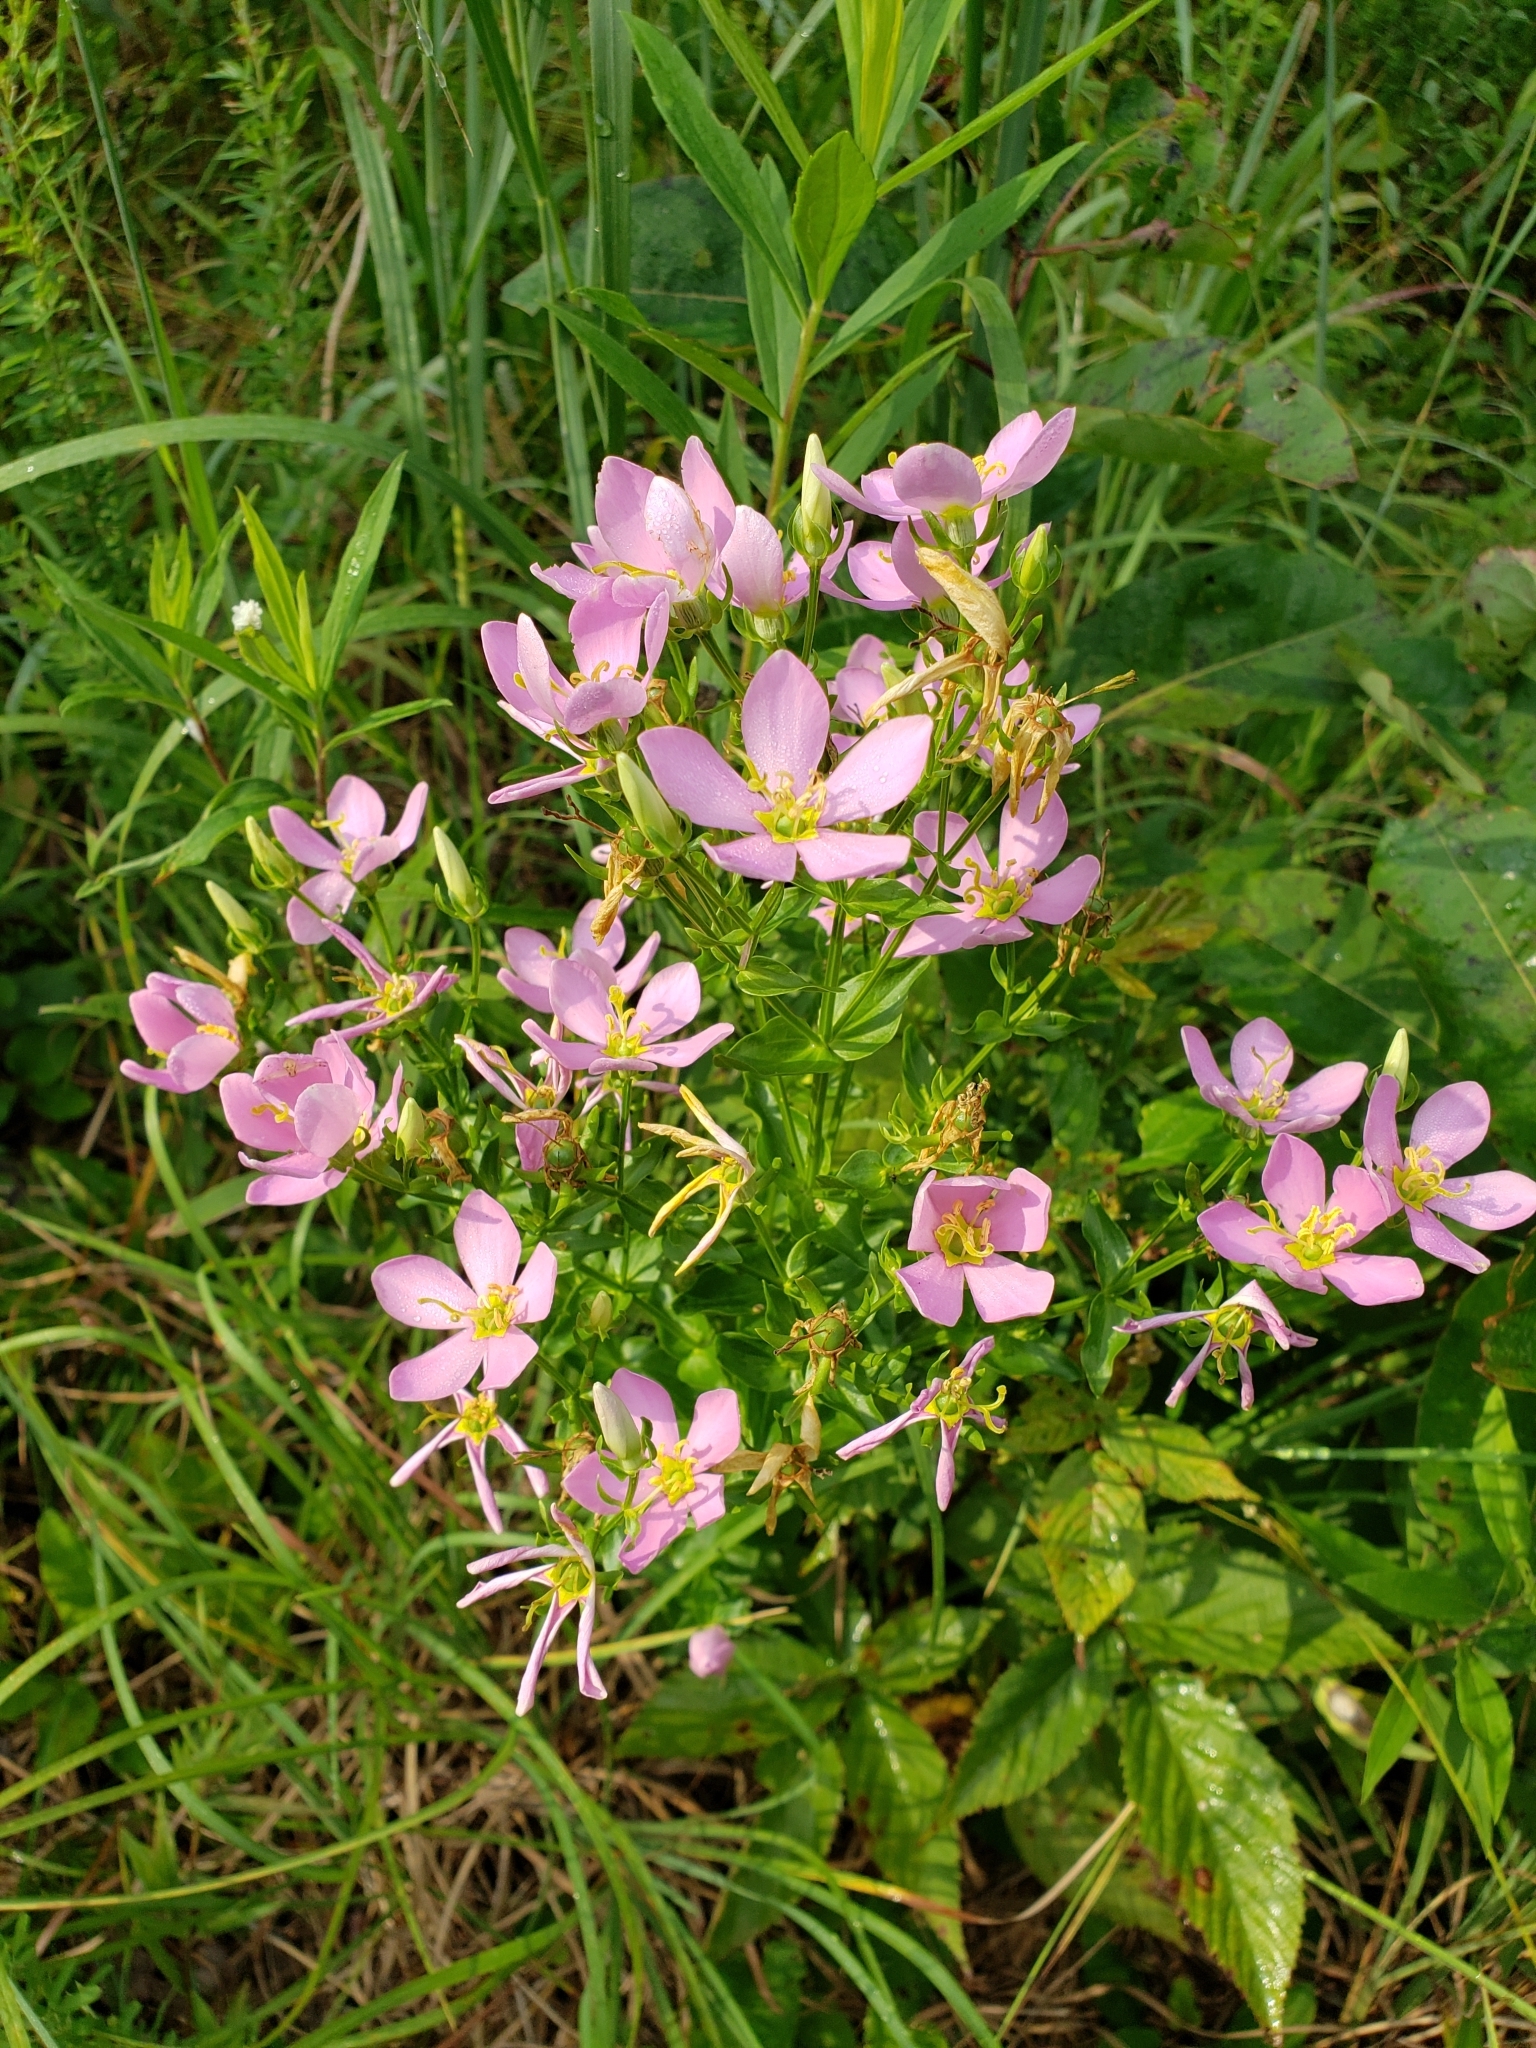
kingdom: Plantae
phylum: Tracheophyta
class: Magnoliopsida
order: Gentianales
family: Gentianaceae
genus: Sabatia
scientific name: Sabatia angularis
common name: Rose-pink
